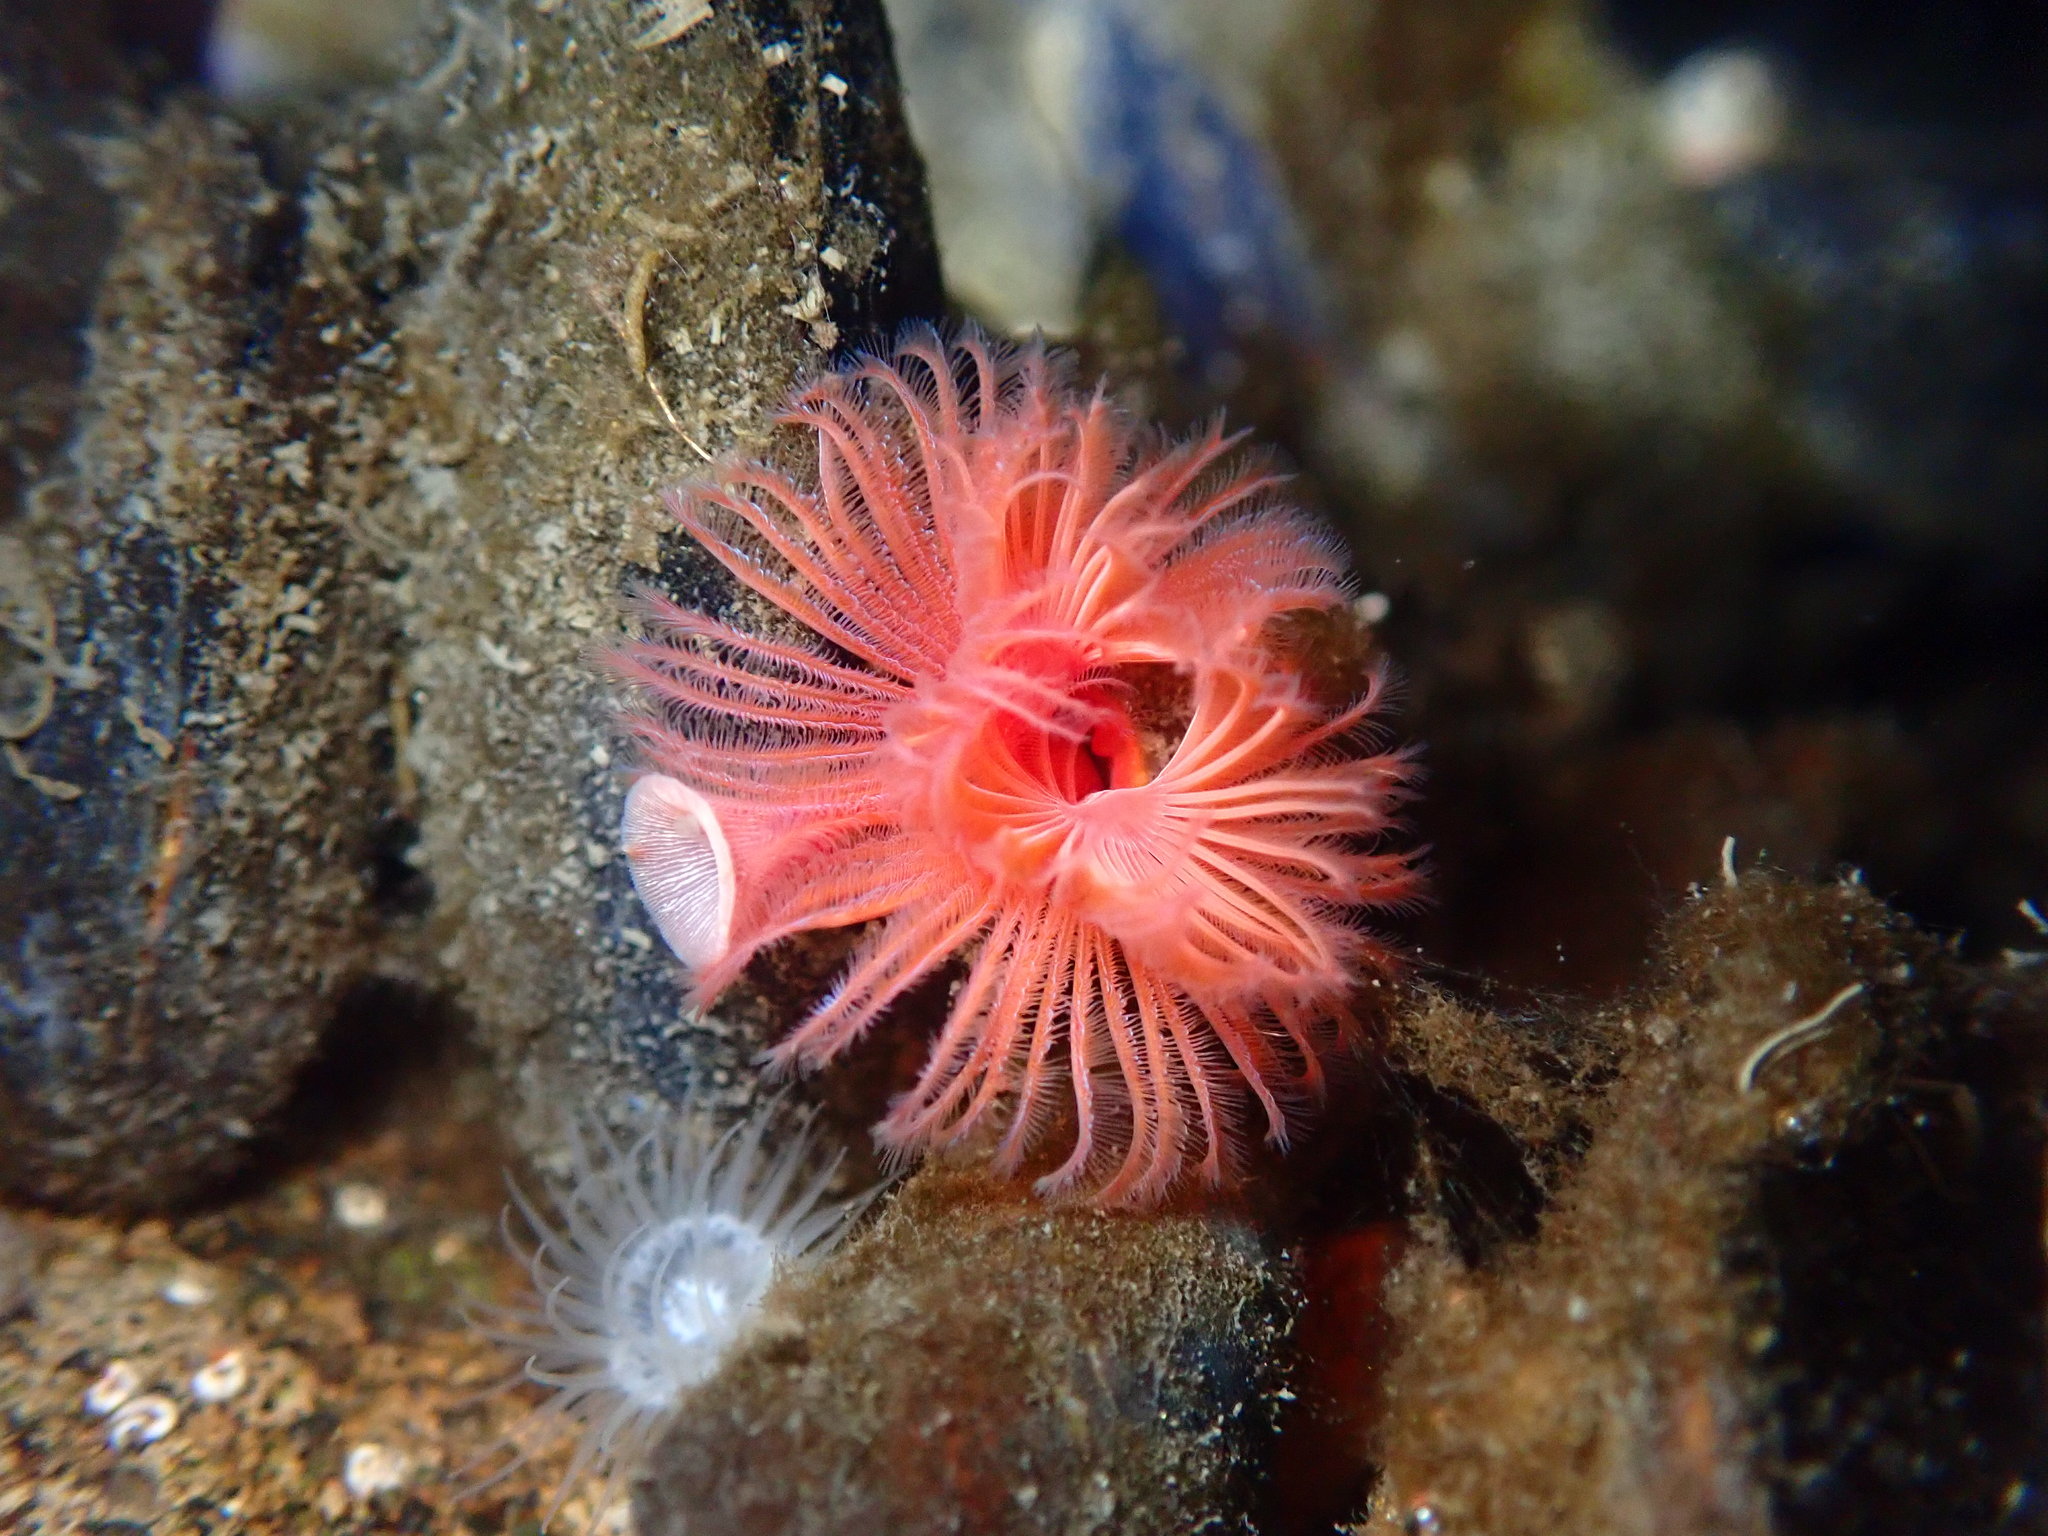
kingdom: Animalia
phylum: Annelida
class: Polychaeta
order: Sabellida
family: Serpulidae
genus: Serpula
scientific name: Serpula columbiana
